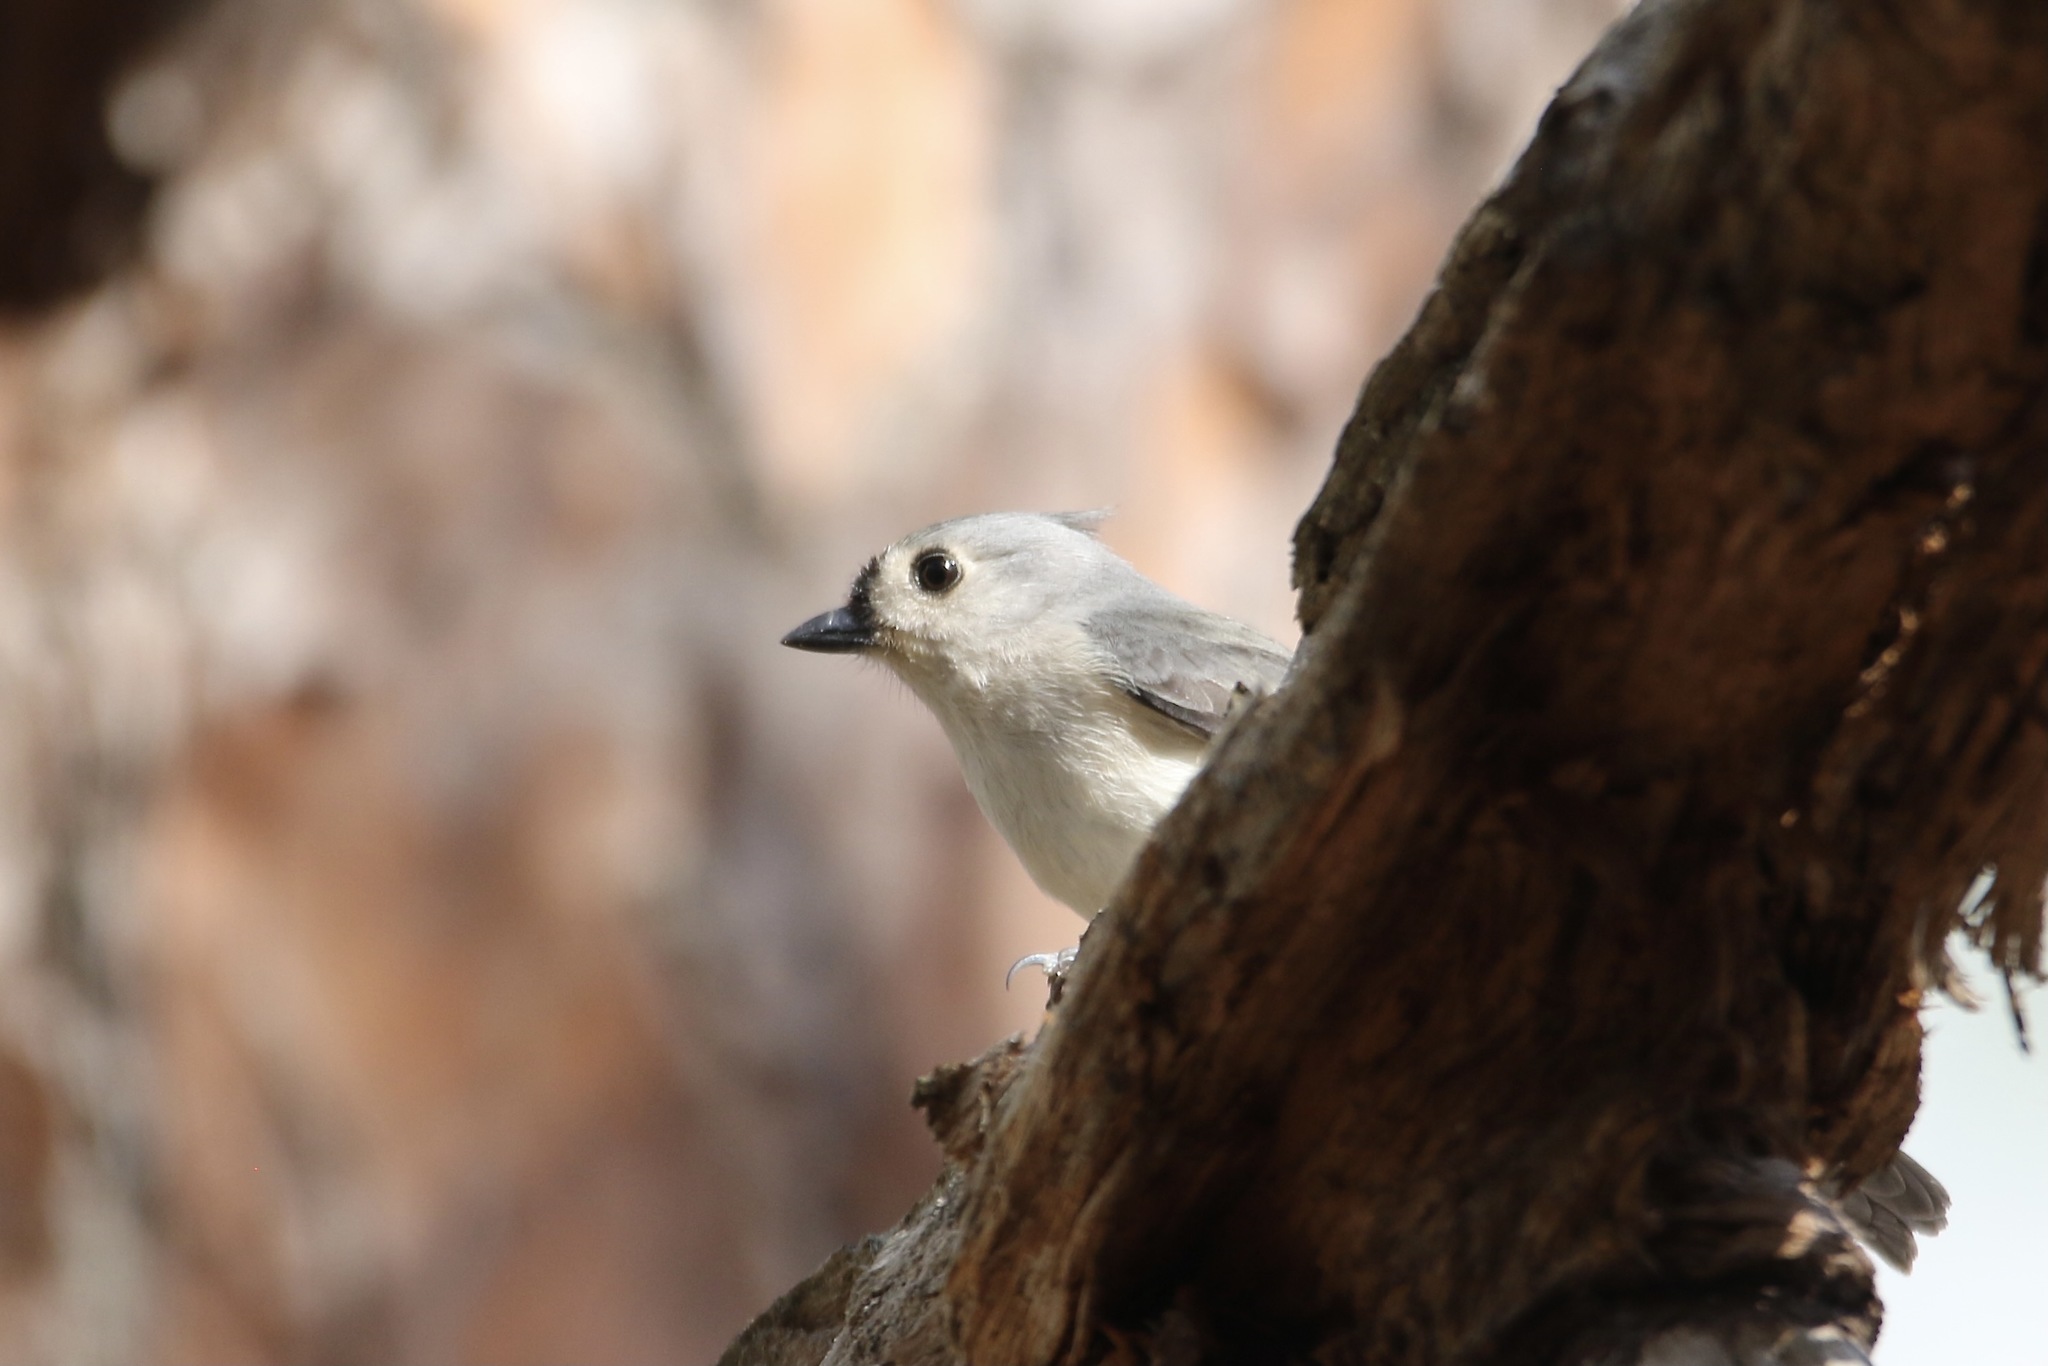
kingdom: Animalia
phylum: Chordata
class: Aves
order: Passeriformes
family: Paridae
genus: Baeolophus
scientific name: Baeolophus bicolor
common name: Tufted titmouse
